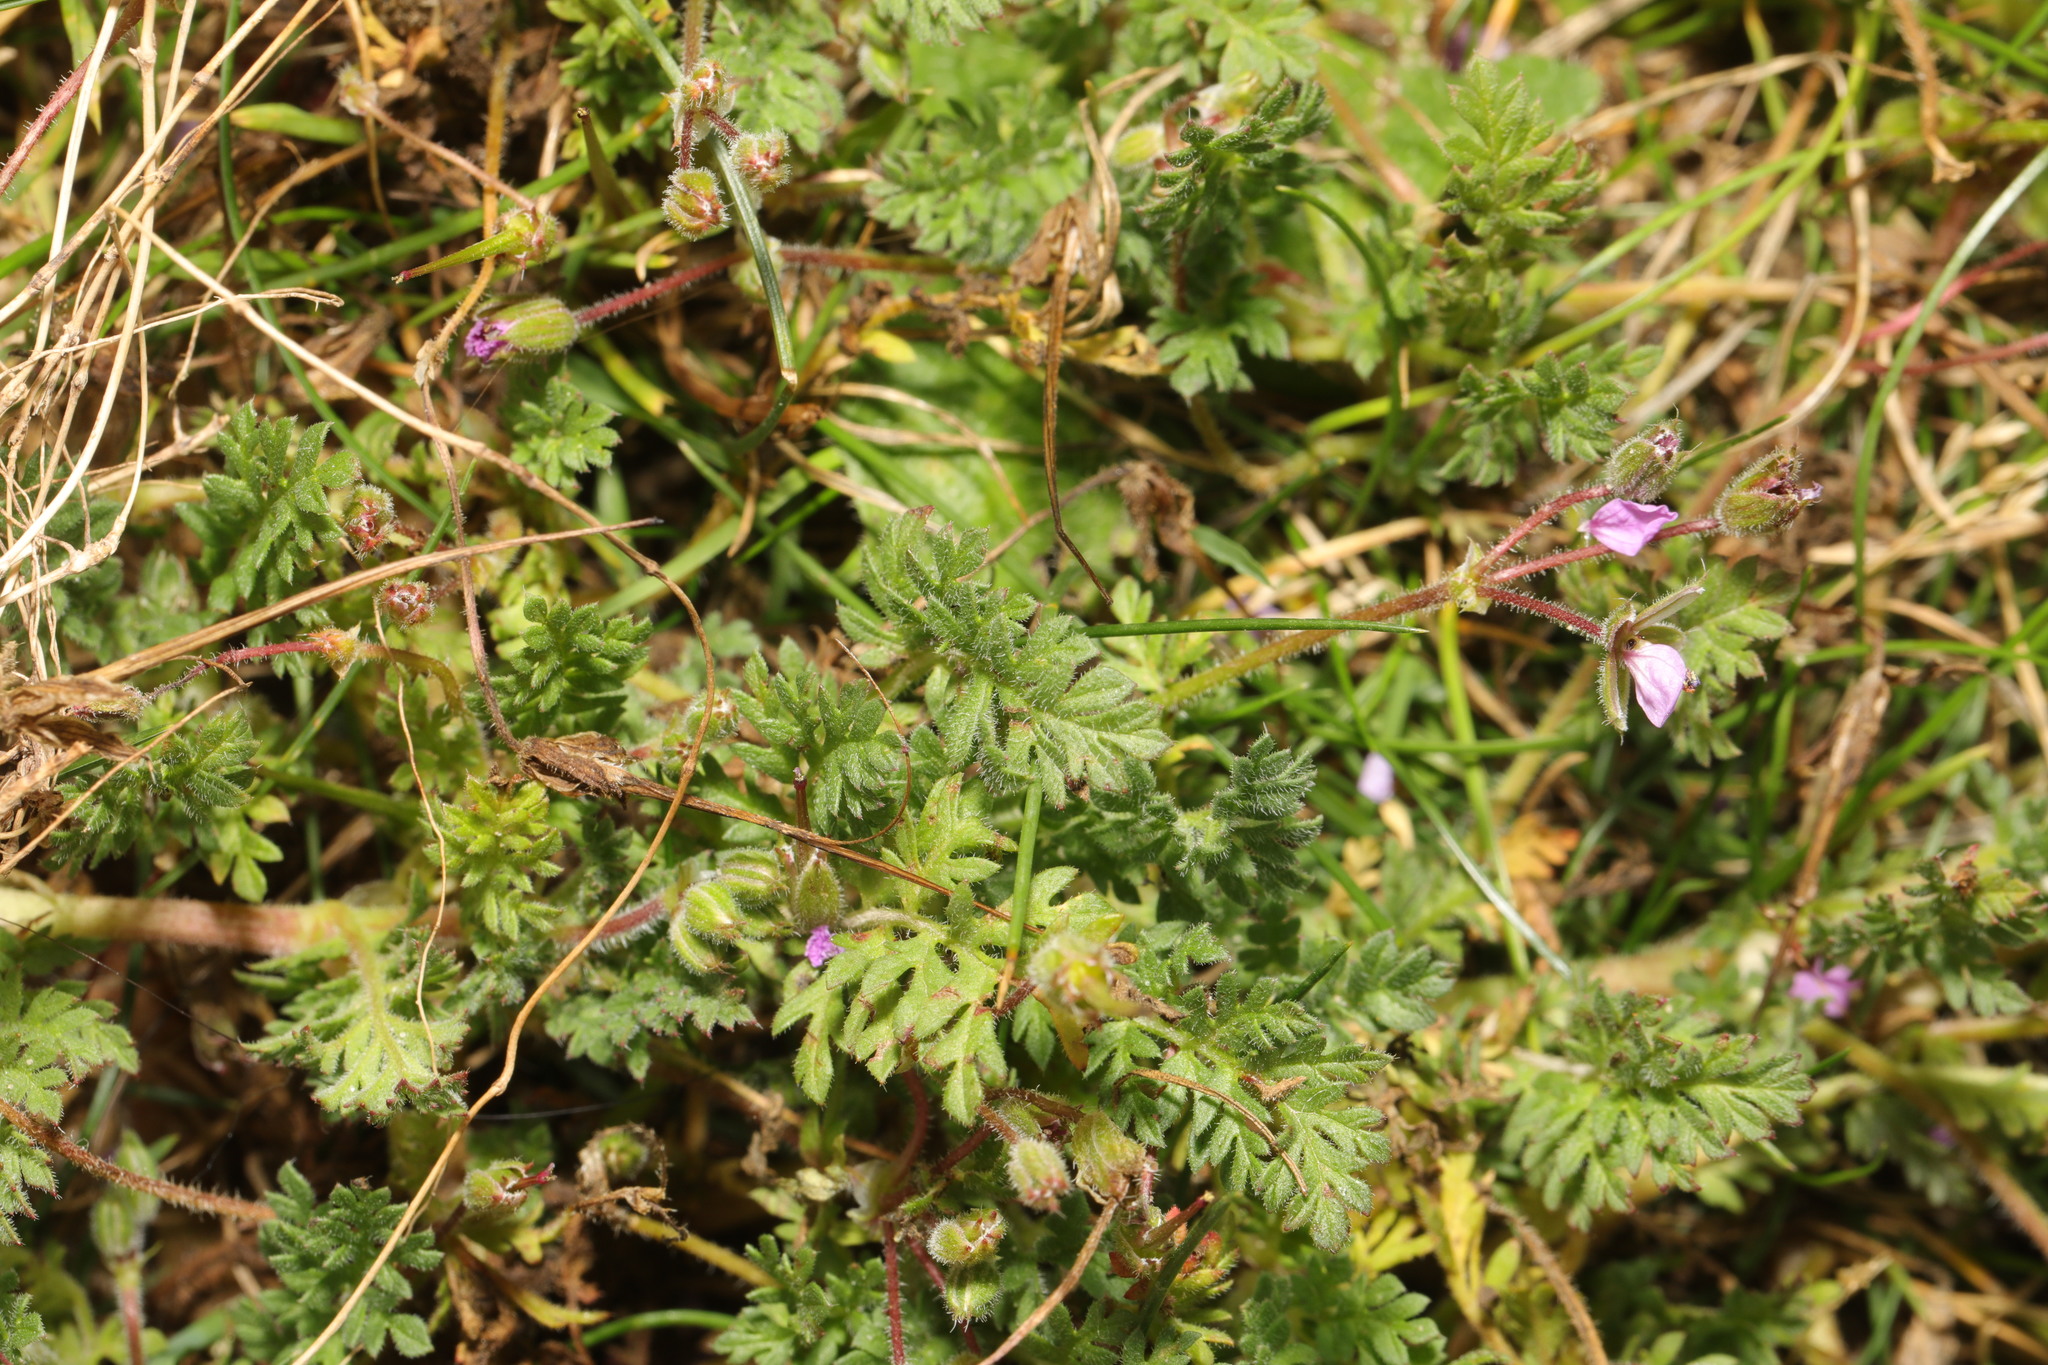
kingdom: Plantae
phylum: Tracheophyta
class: Magnoliopsida
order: Geraniales
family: Geraniaceae
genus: Erodium
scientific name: Erodium cicutarium
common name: Common stork's-bill
